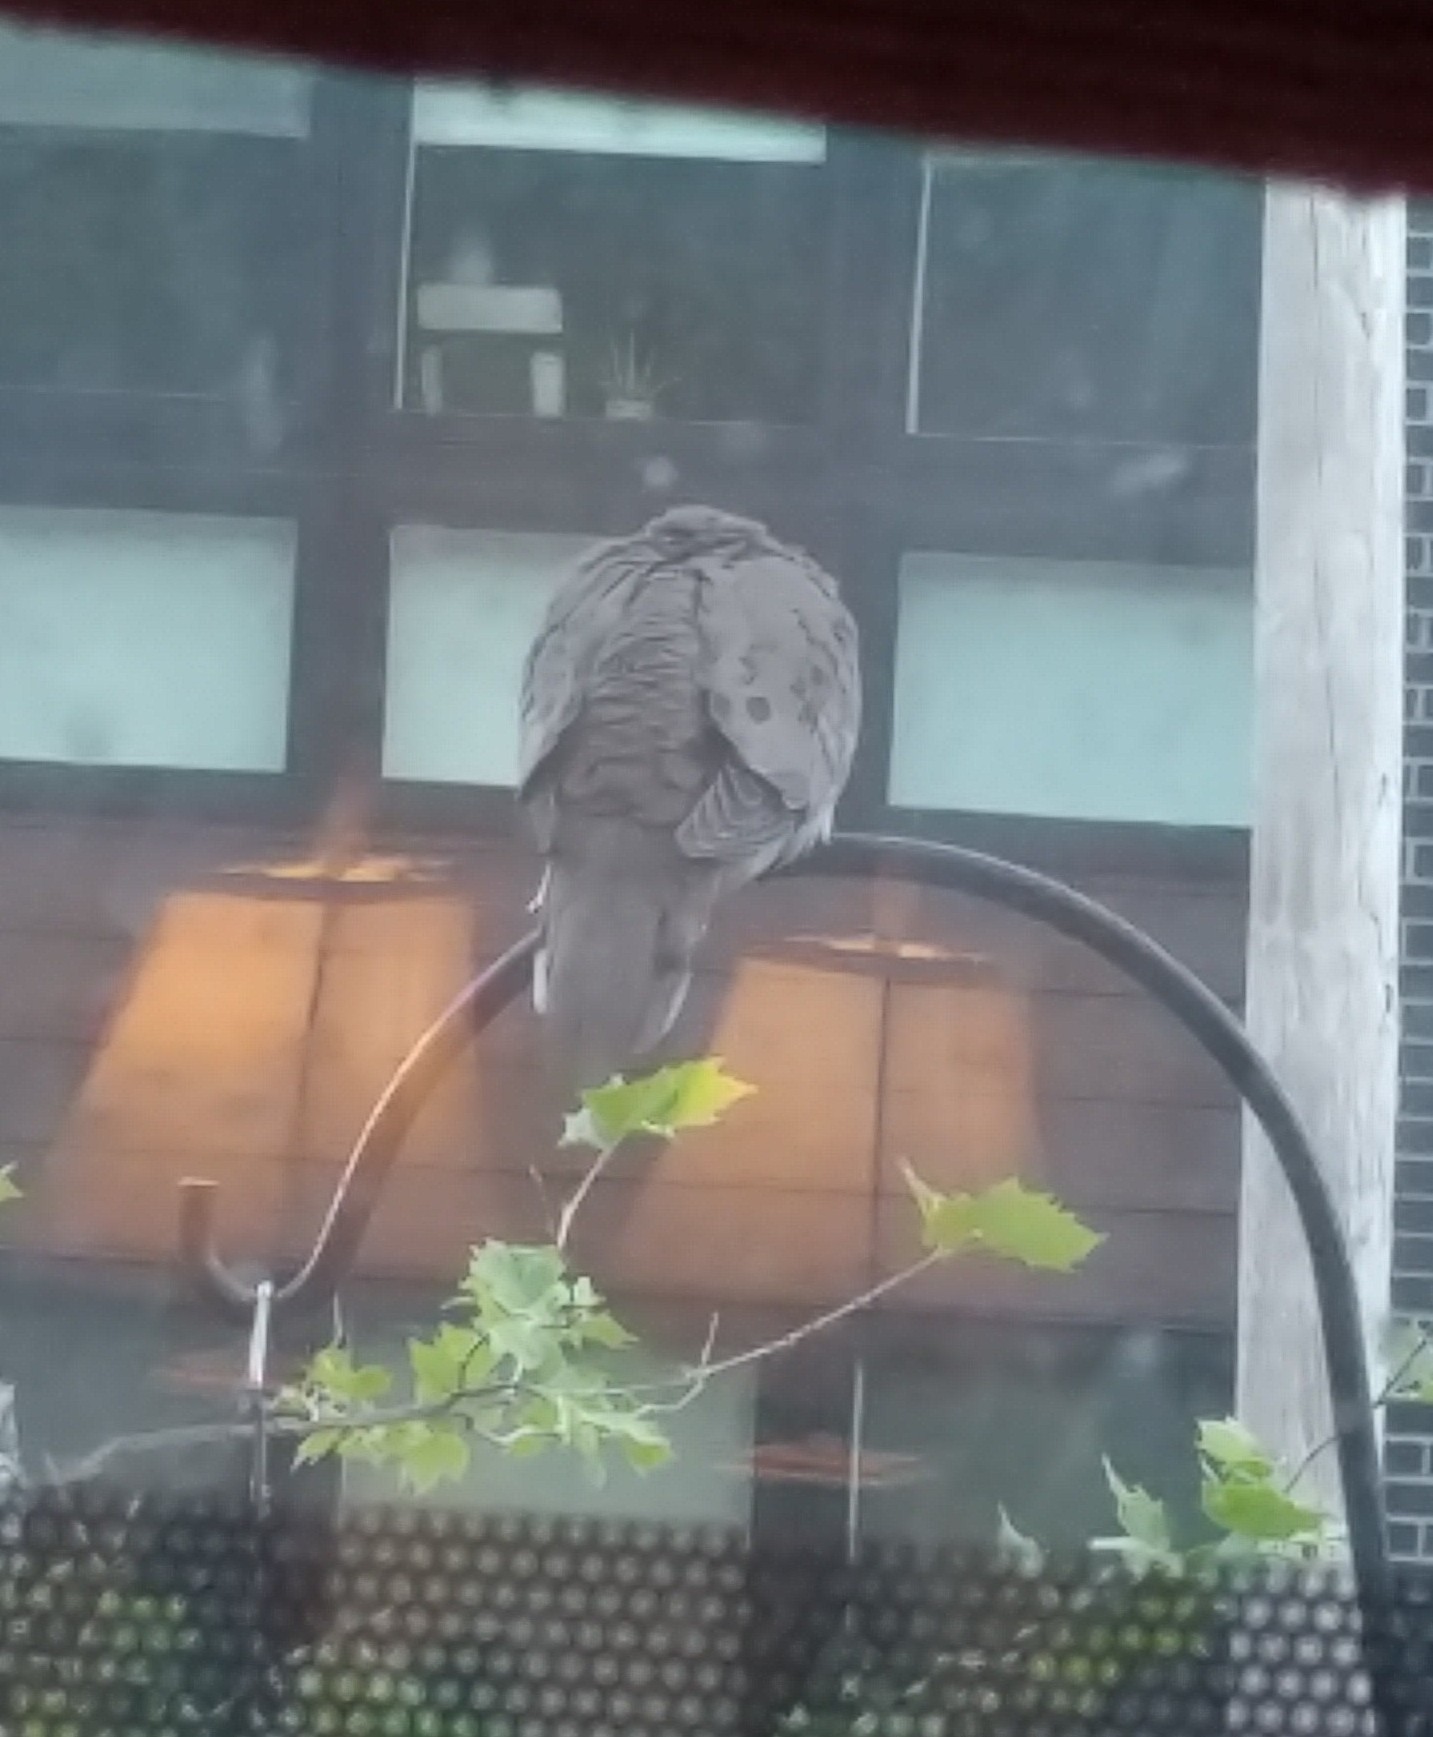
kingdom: Animalia
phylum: Chordata
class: Aves
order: Columbiformes
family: Columbidae
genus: Zenaida
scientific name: Zenaida macroura
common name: Mourning dove
